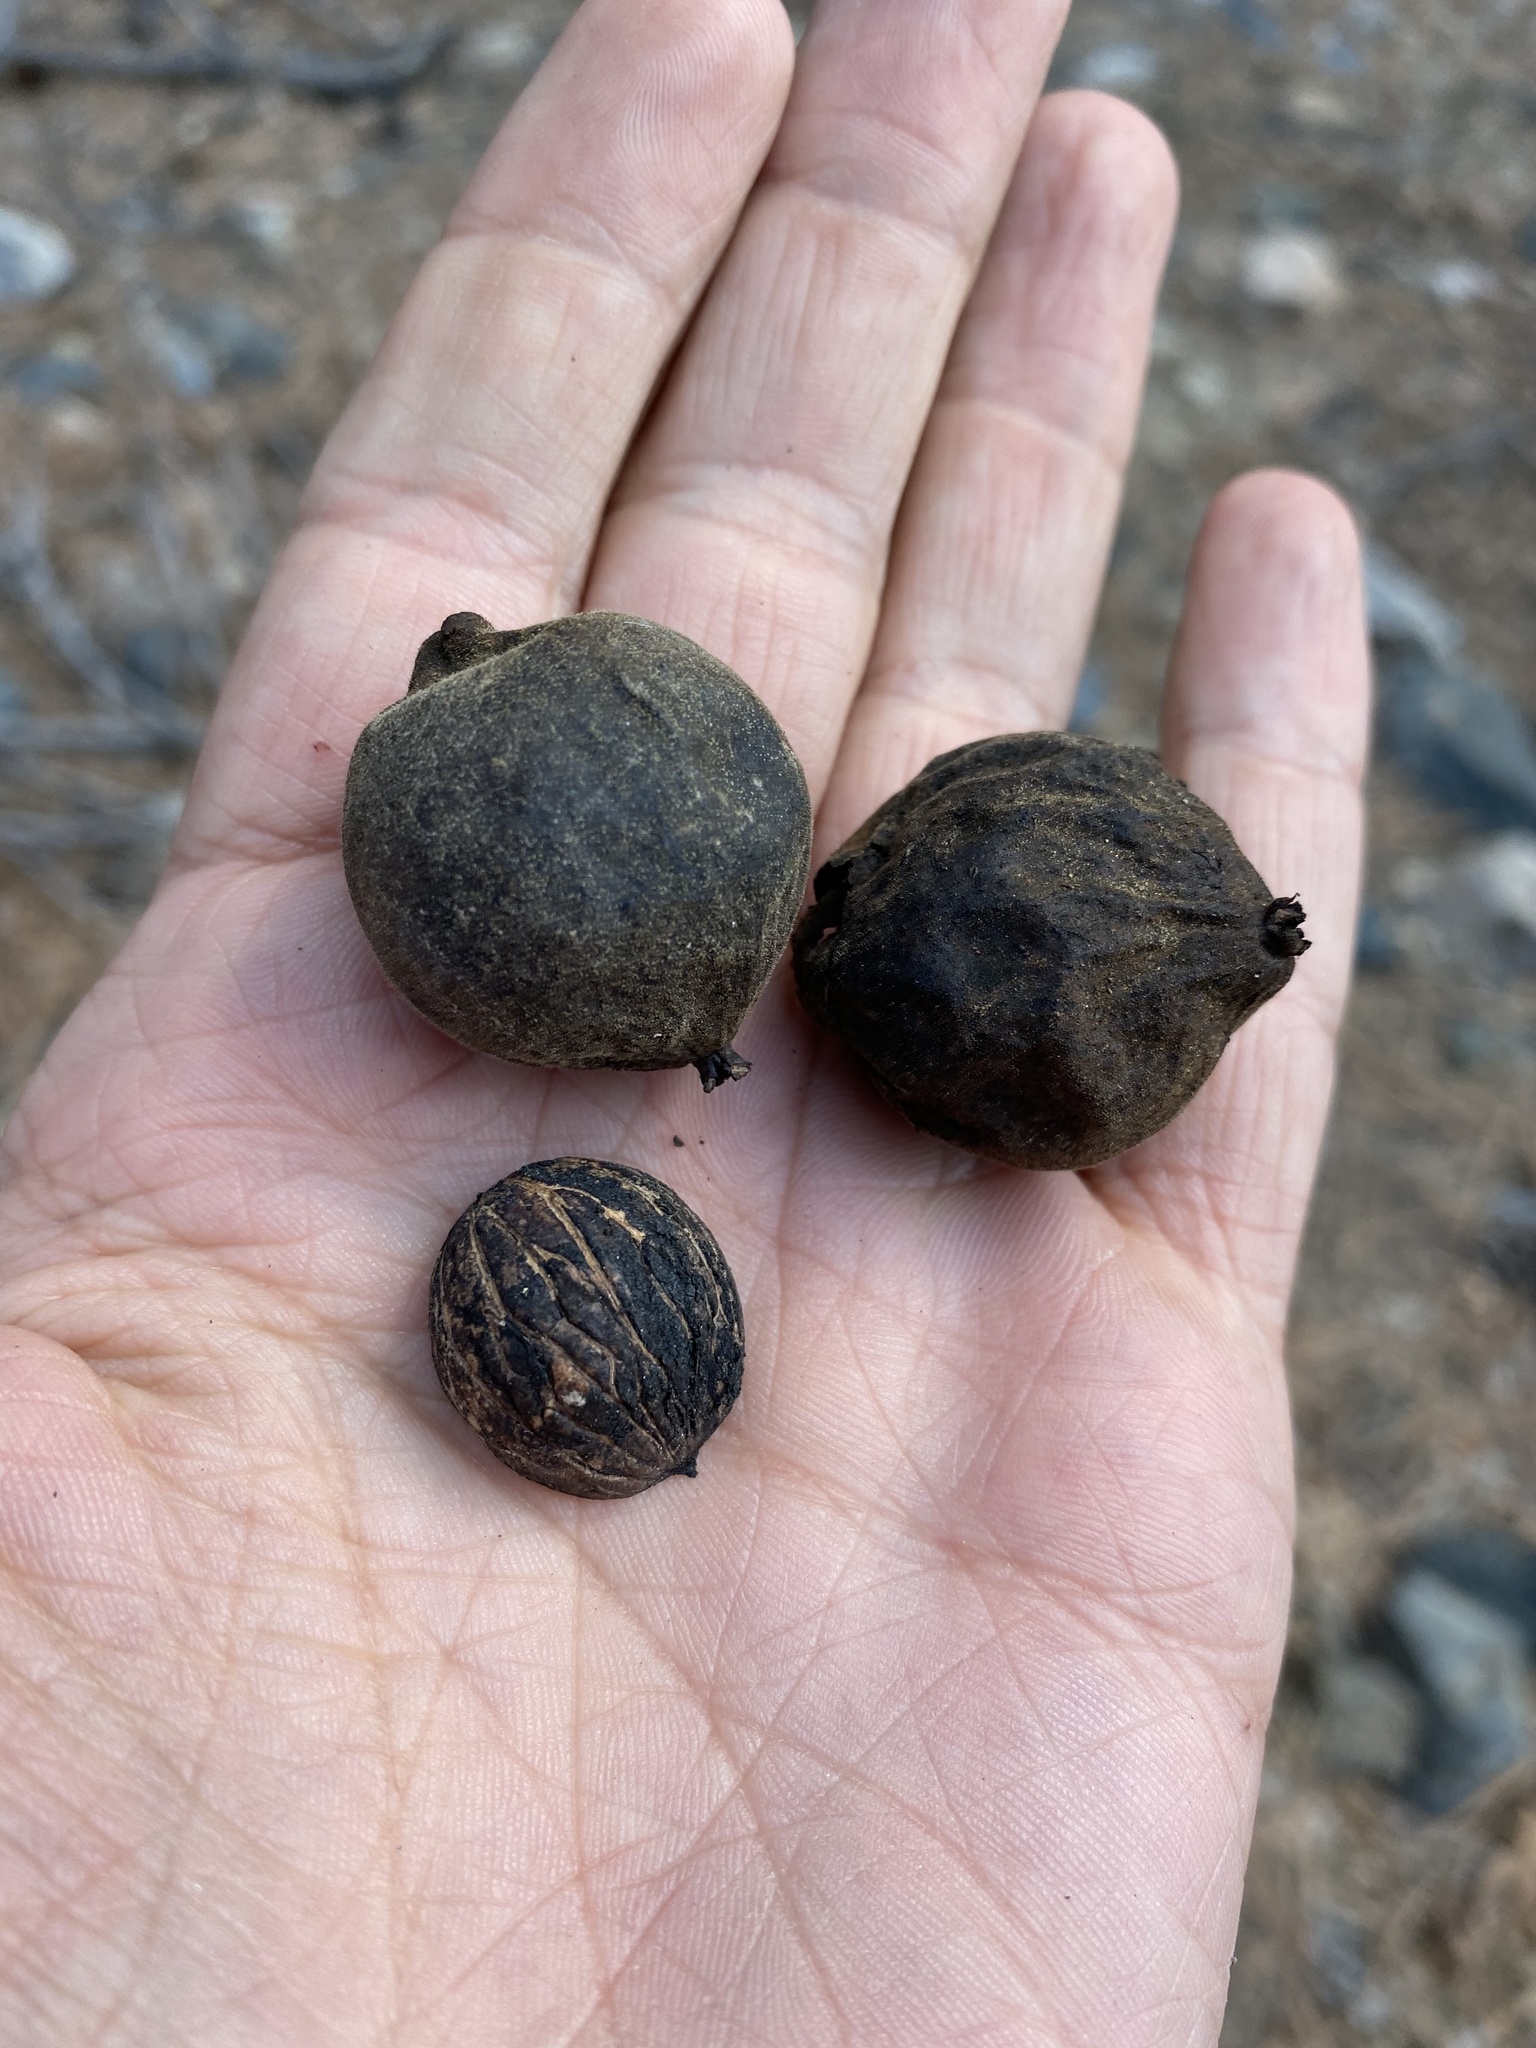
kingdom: Plantae
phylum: Tracheophyta
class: Magnoliopsida
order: Fagales
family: Juglandaceae
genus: Juglans
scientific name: Juglans major
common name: Arizona walnut
